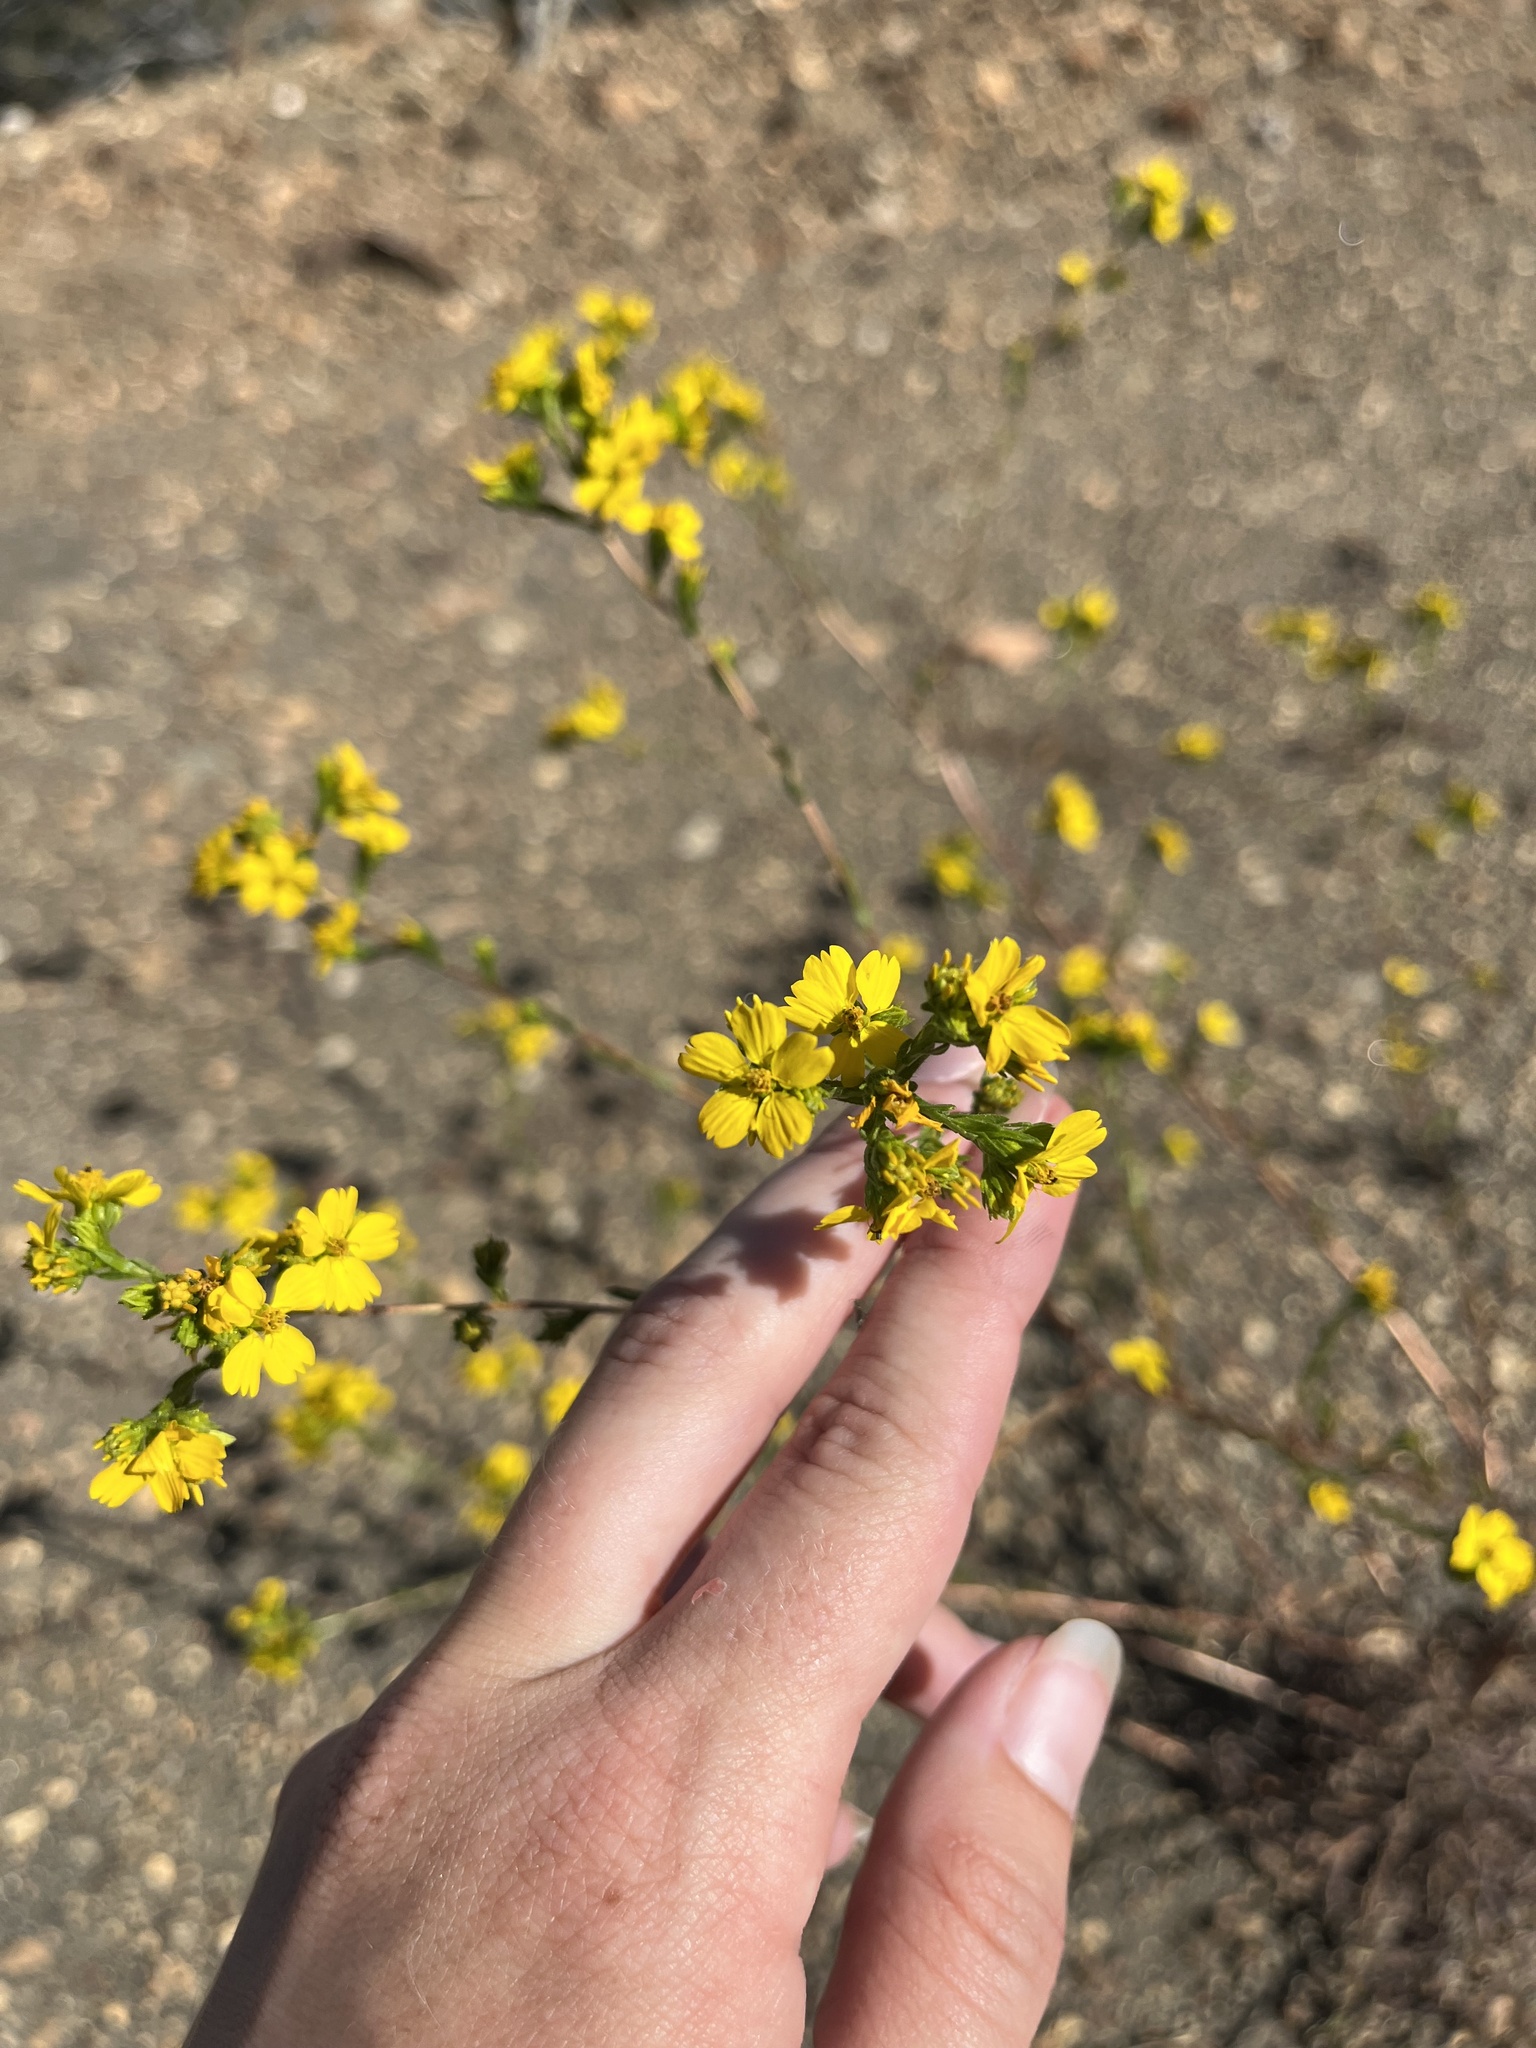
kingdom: Plantae
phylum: Tracheophyta
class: Magnoliopsida
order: Asterales
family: Asteraceae
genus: Deinandra
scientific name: Deinandra fasciculata
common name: Clustered tarweed
